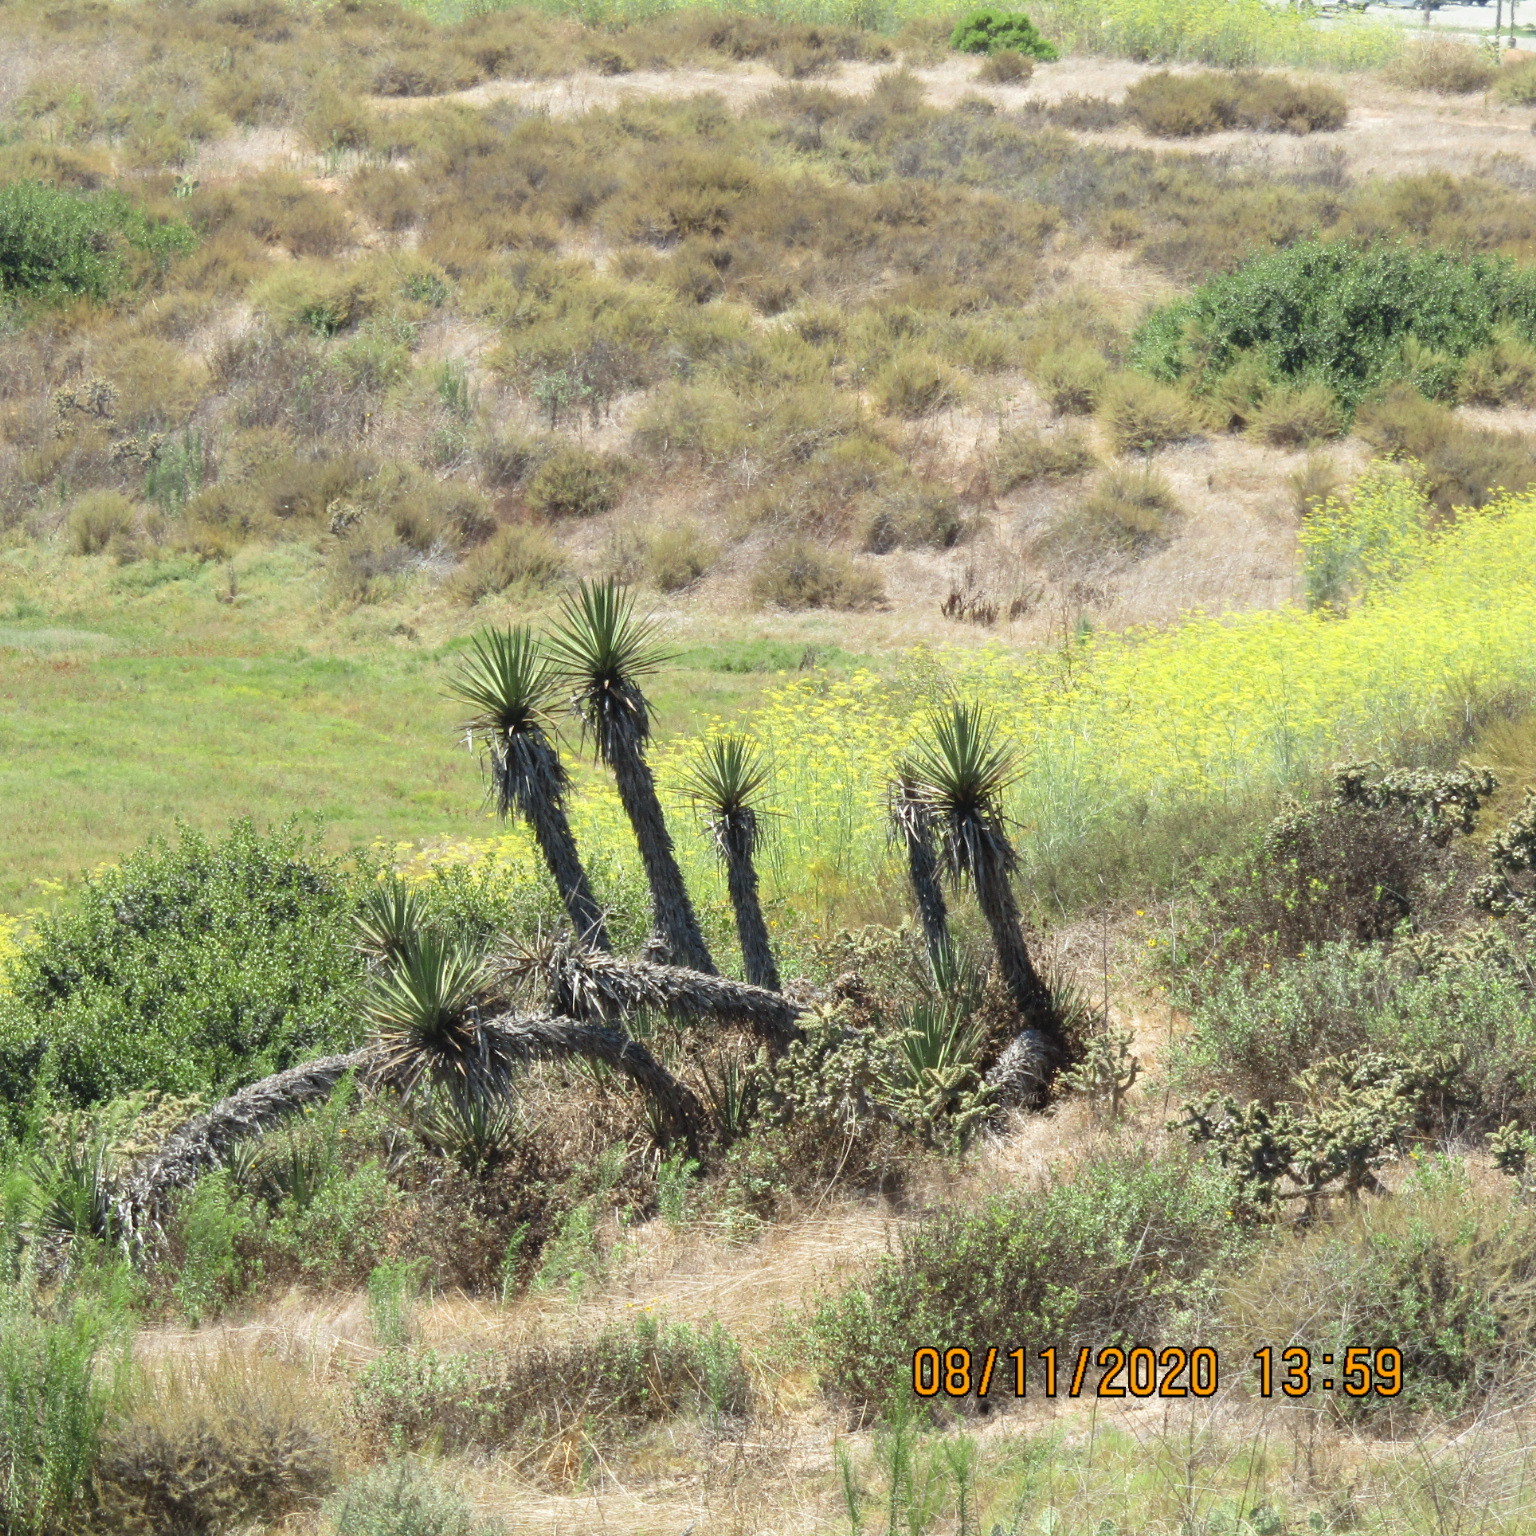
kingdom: Plantae
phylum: Tracheophyta
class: Liliopsida
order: Asparagales
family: Asparagaceae
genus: Yucca
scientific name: Yucca schidigera
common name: Mojave yucca
